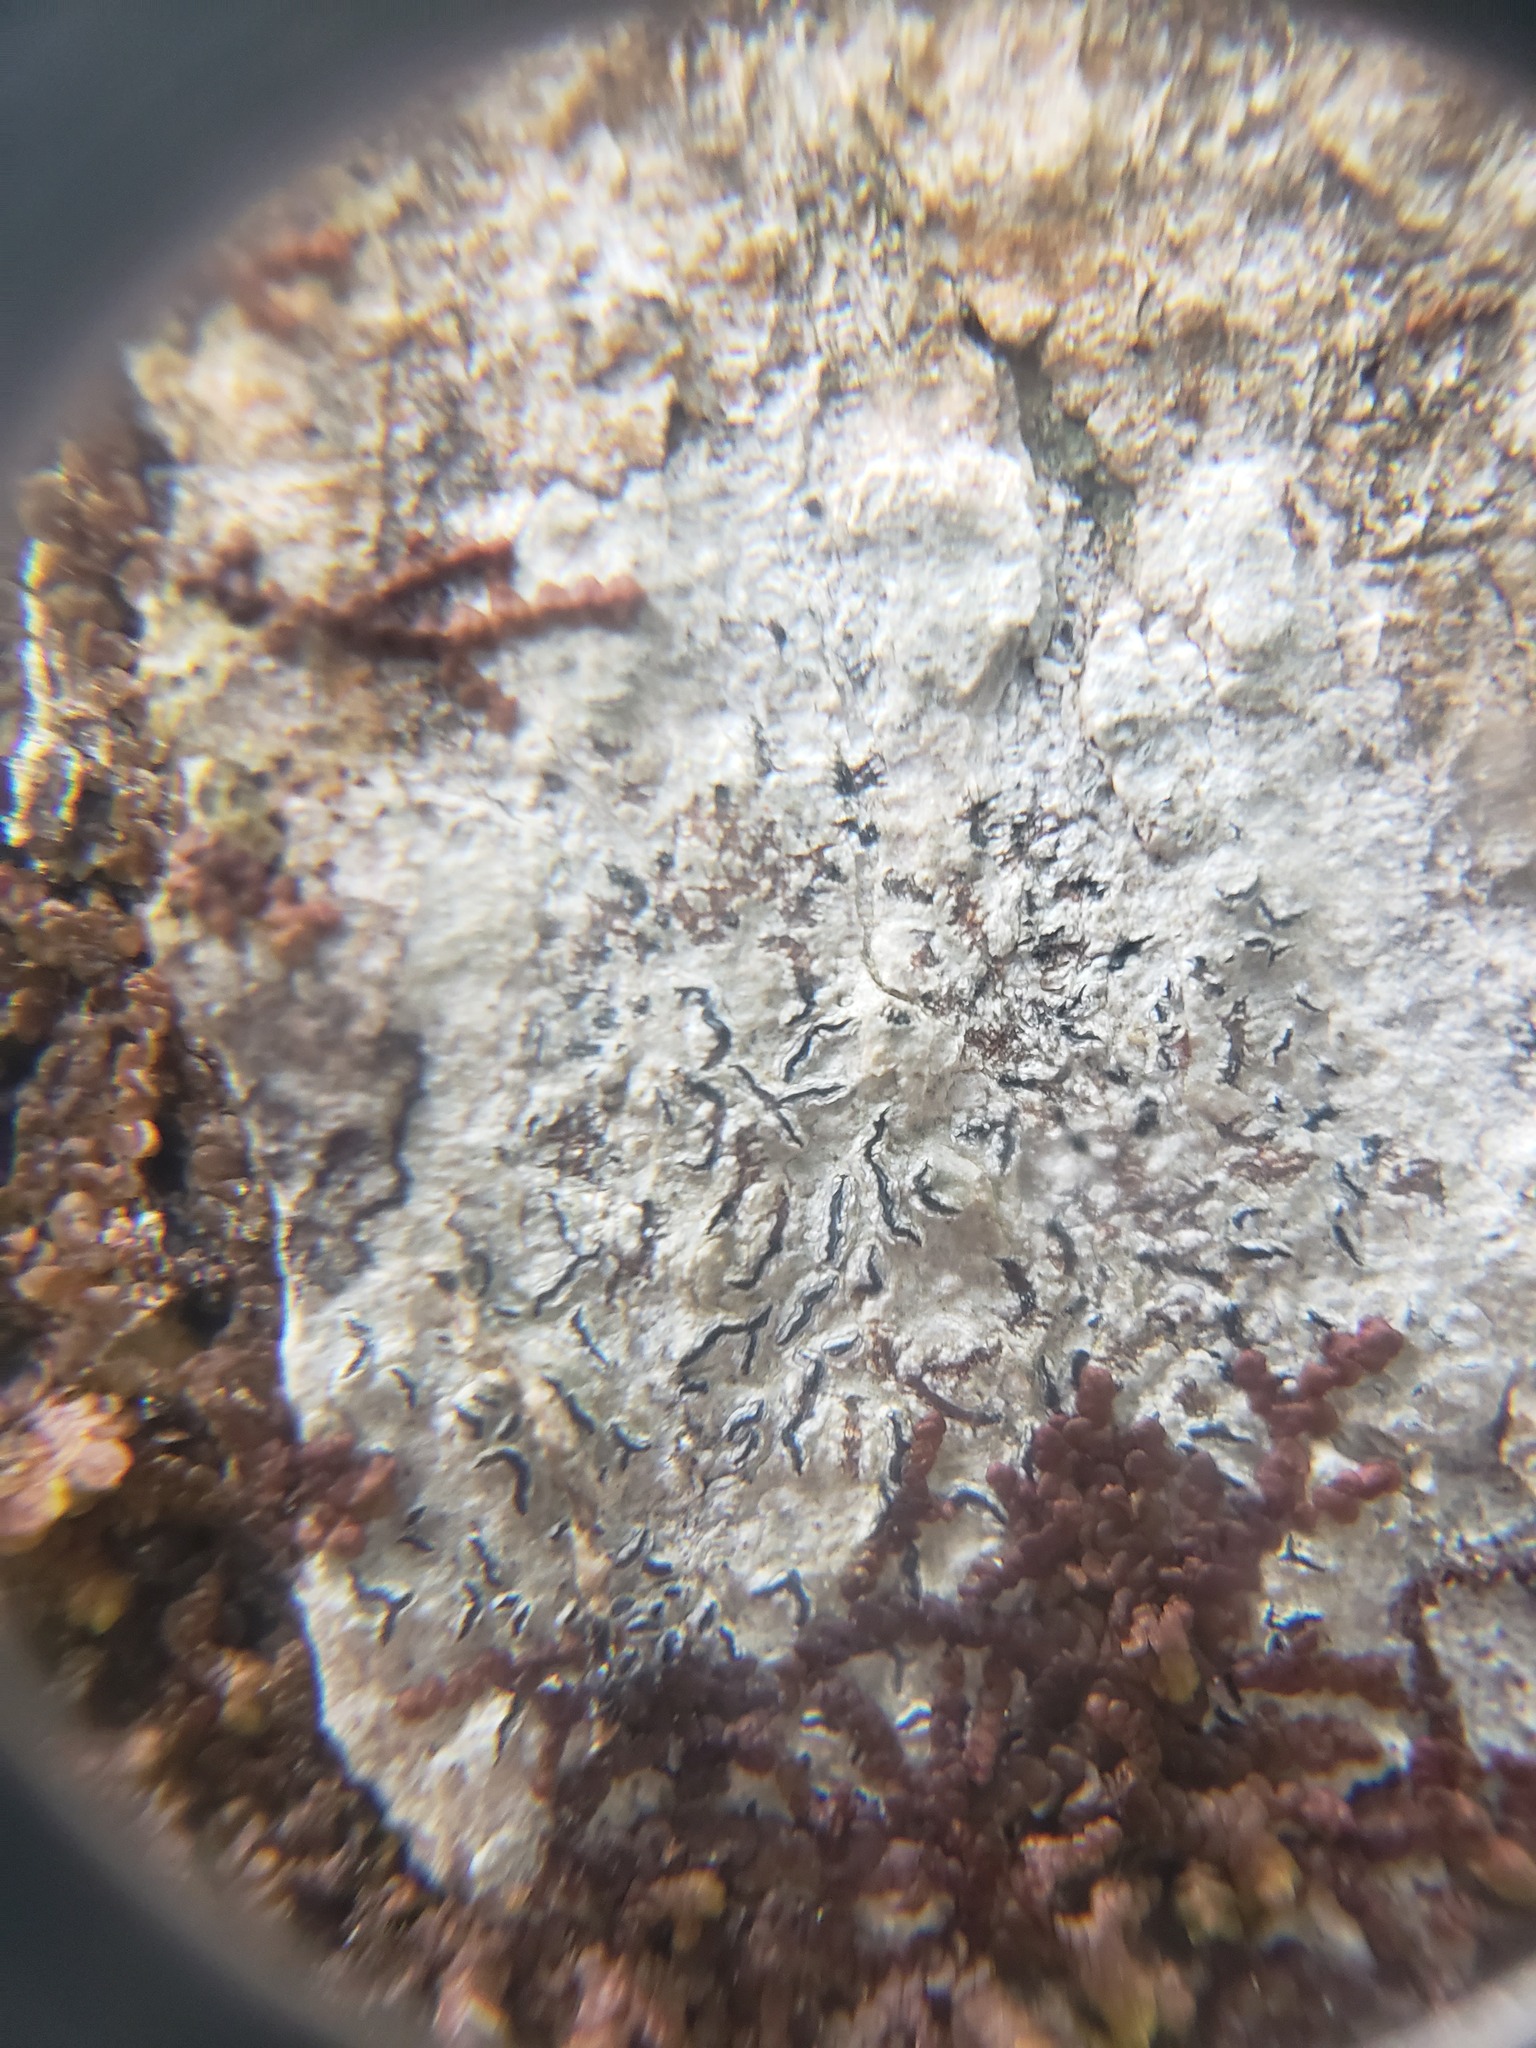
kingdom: Fungi
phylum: Ascomycota
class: Lecanoromycetes
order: Ostropales
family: Graphidaceae
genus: Graphis
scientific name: Graphis scripta
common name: Script lichen
